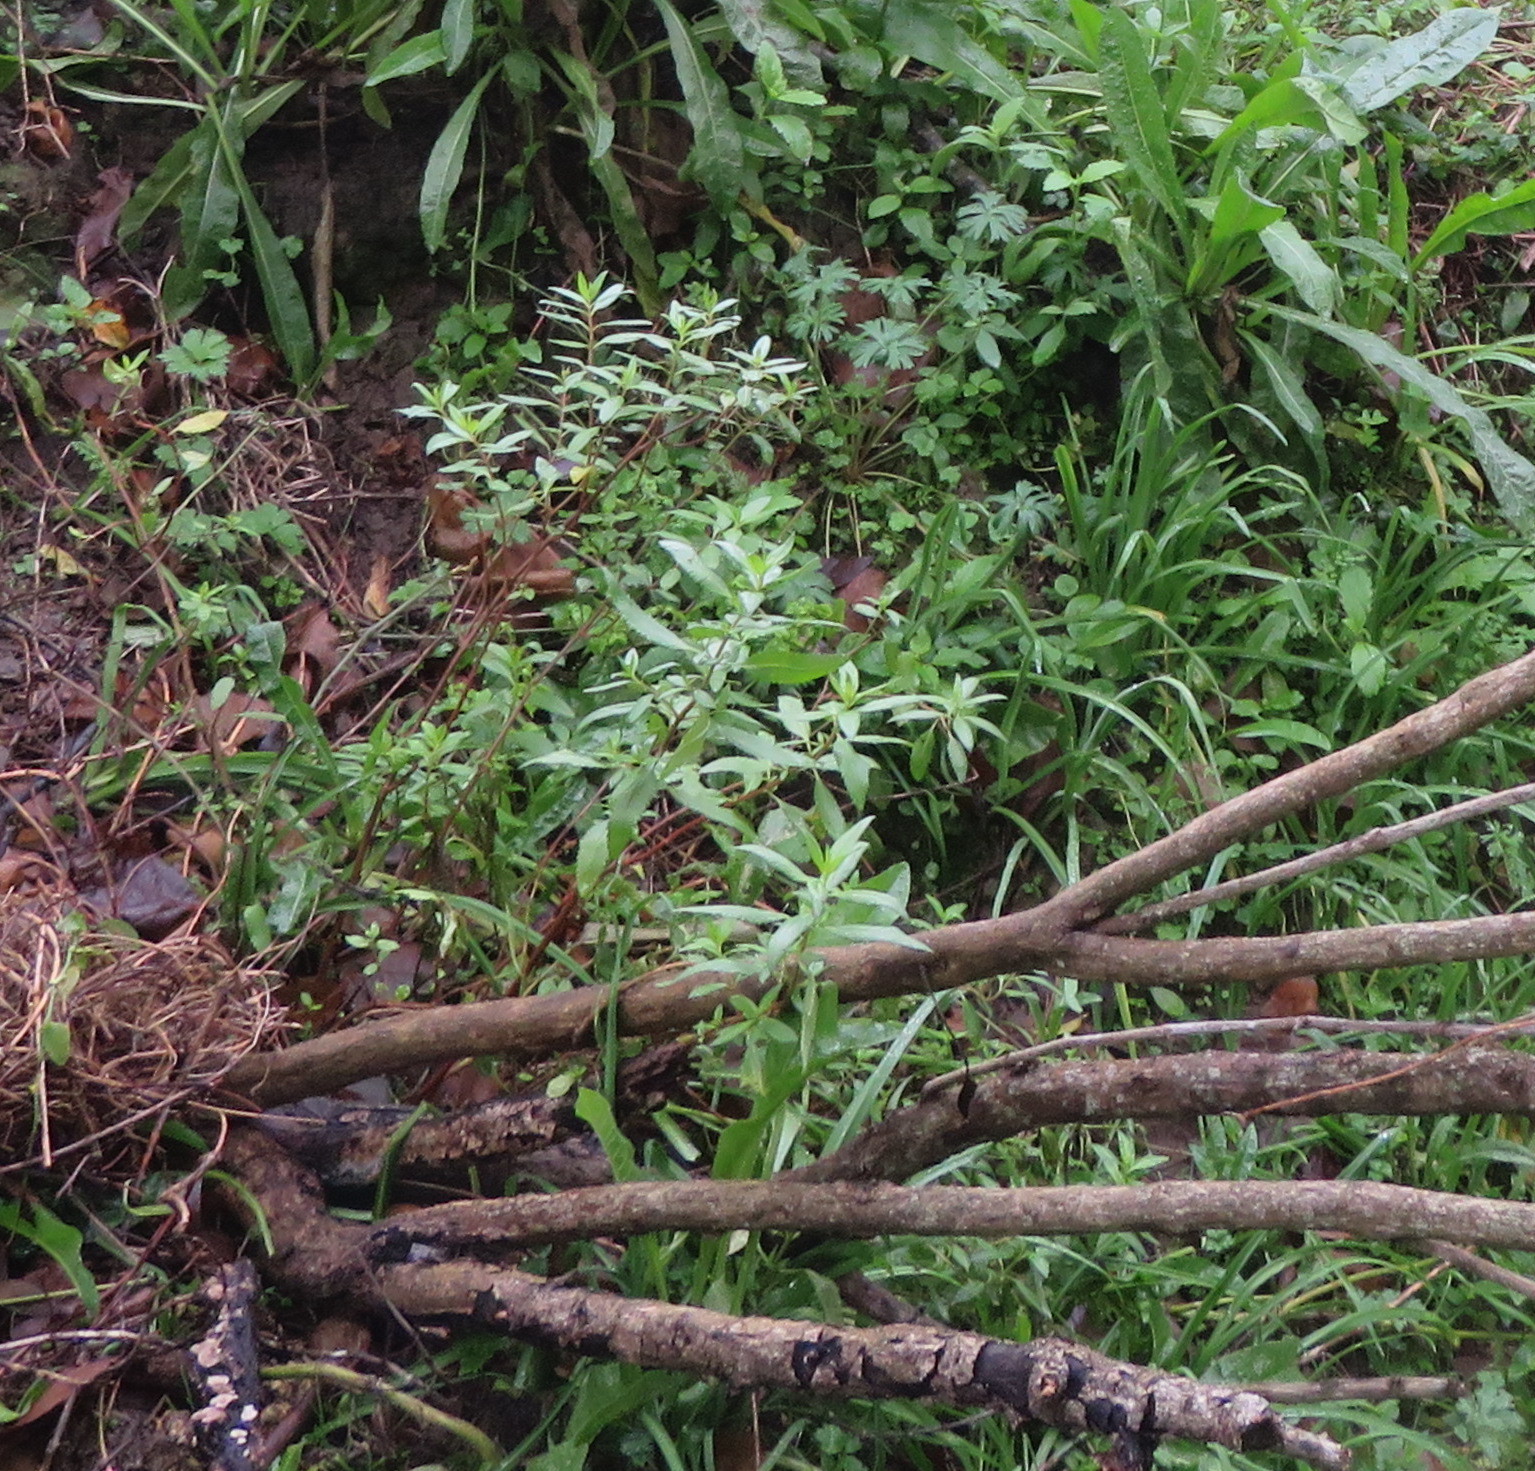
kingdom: Plantae
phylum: Tracheophyta
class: Magnoliopsida
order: Saxifragales
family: Haloragaceae
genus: Haloragis
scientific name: Haloragis erecta
